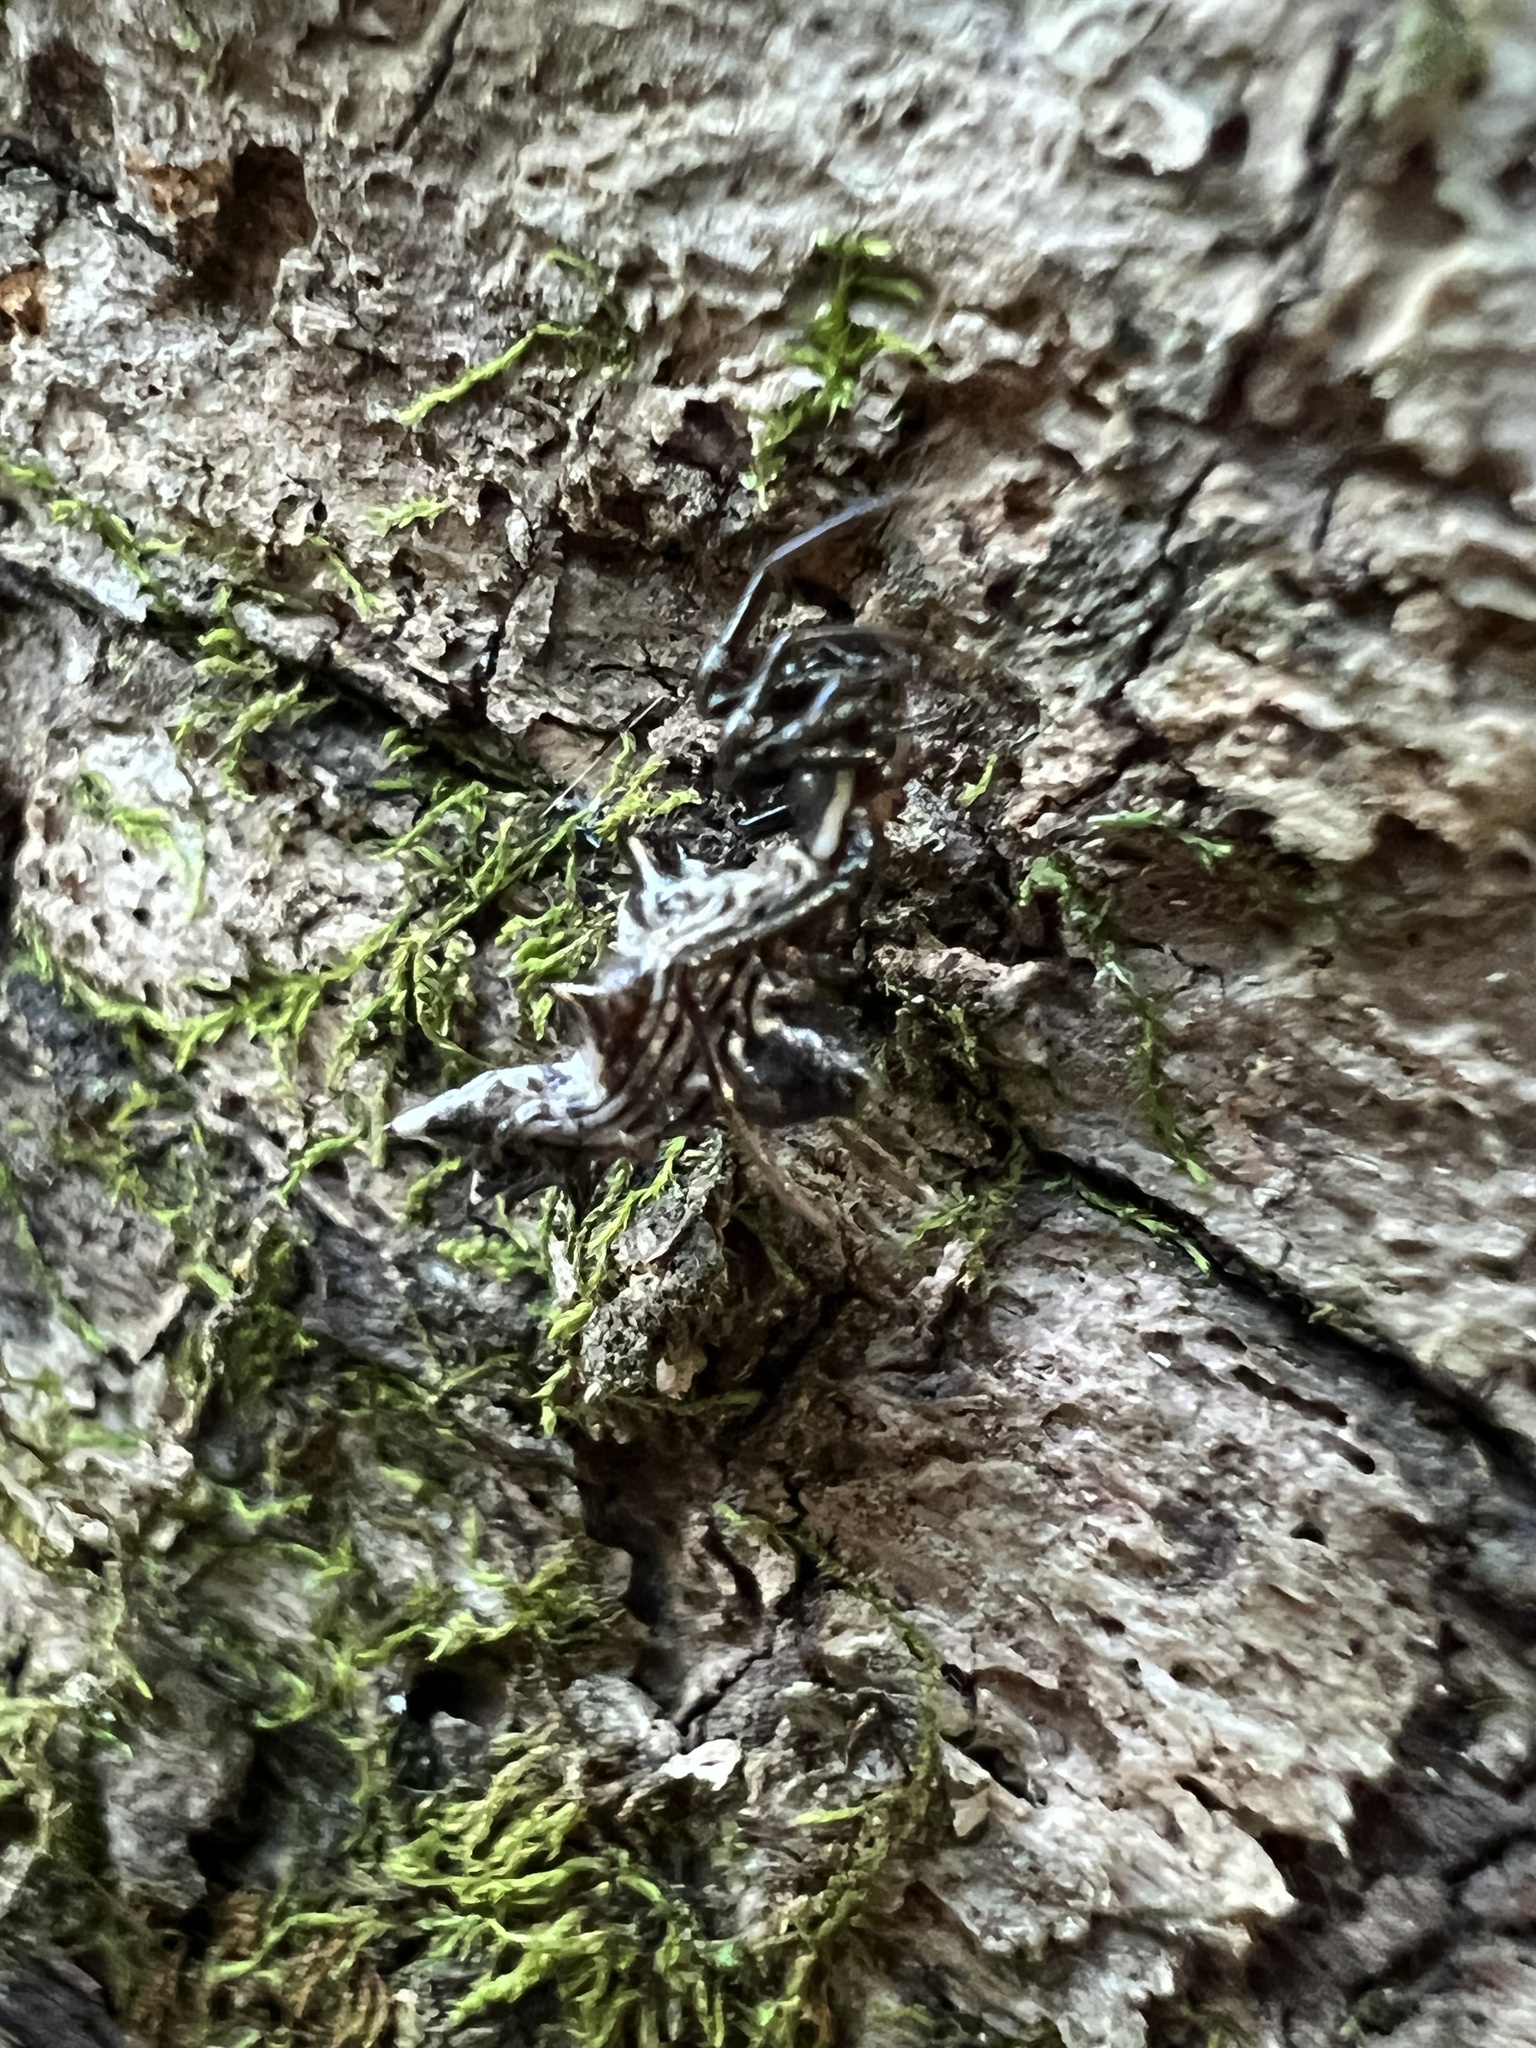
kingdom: Animalia
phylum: Arthropoda
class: Arachnida
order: Araneae
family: Araneidae
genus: Micrathena
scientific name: Micrathena gracilis
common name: Orb weavers
